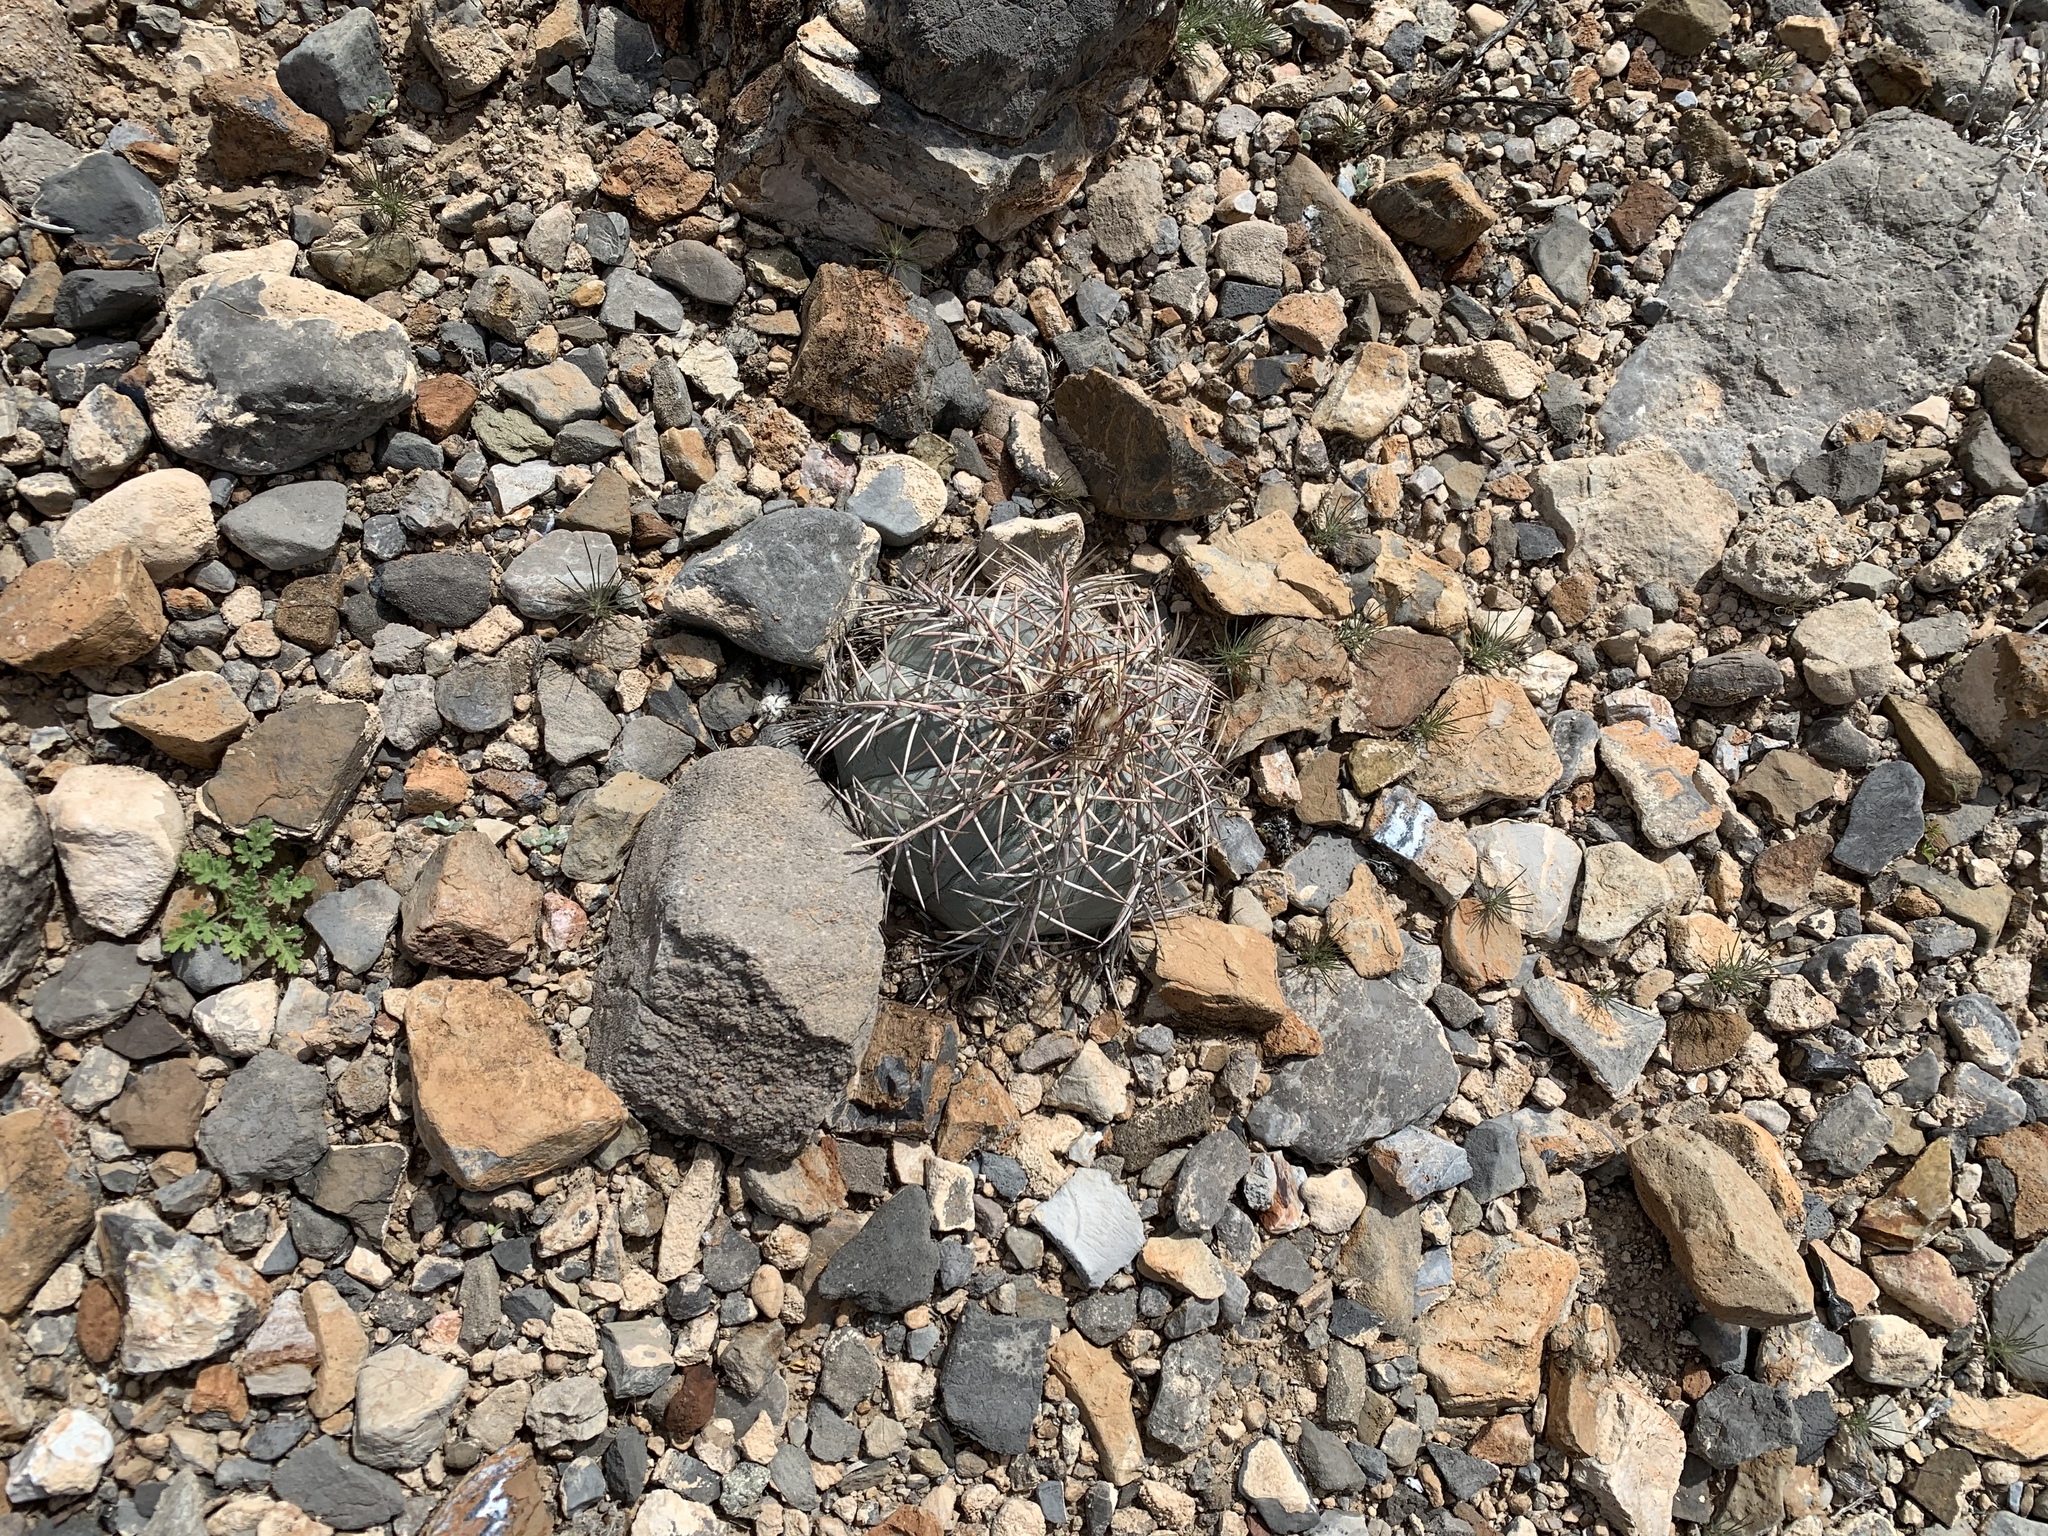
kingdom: Plantae
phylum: Tracheophyta
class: Magnoliopsida
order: Caryophyllales
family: Cactaceae
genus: Echinocactus
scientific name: Echinocactus horizonthalonius
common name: Devilshead
